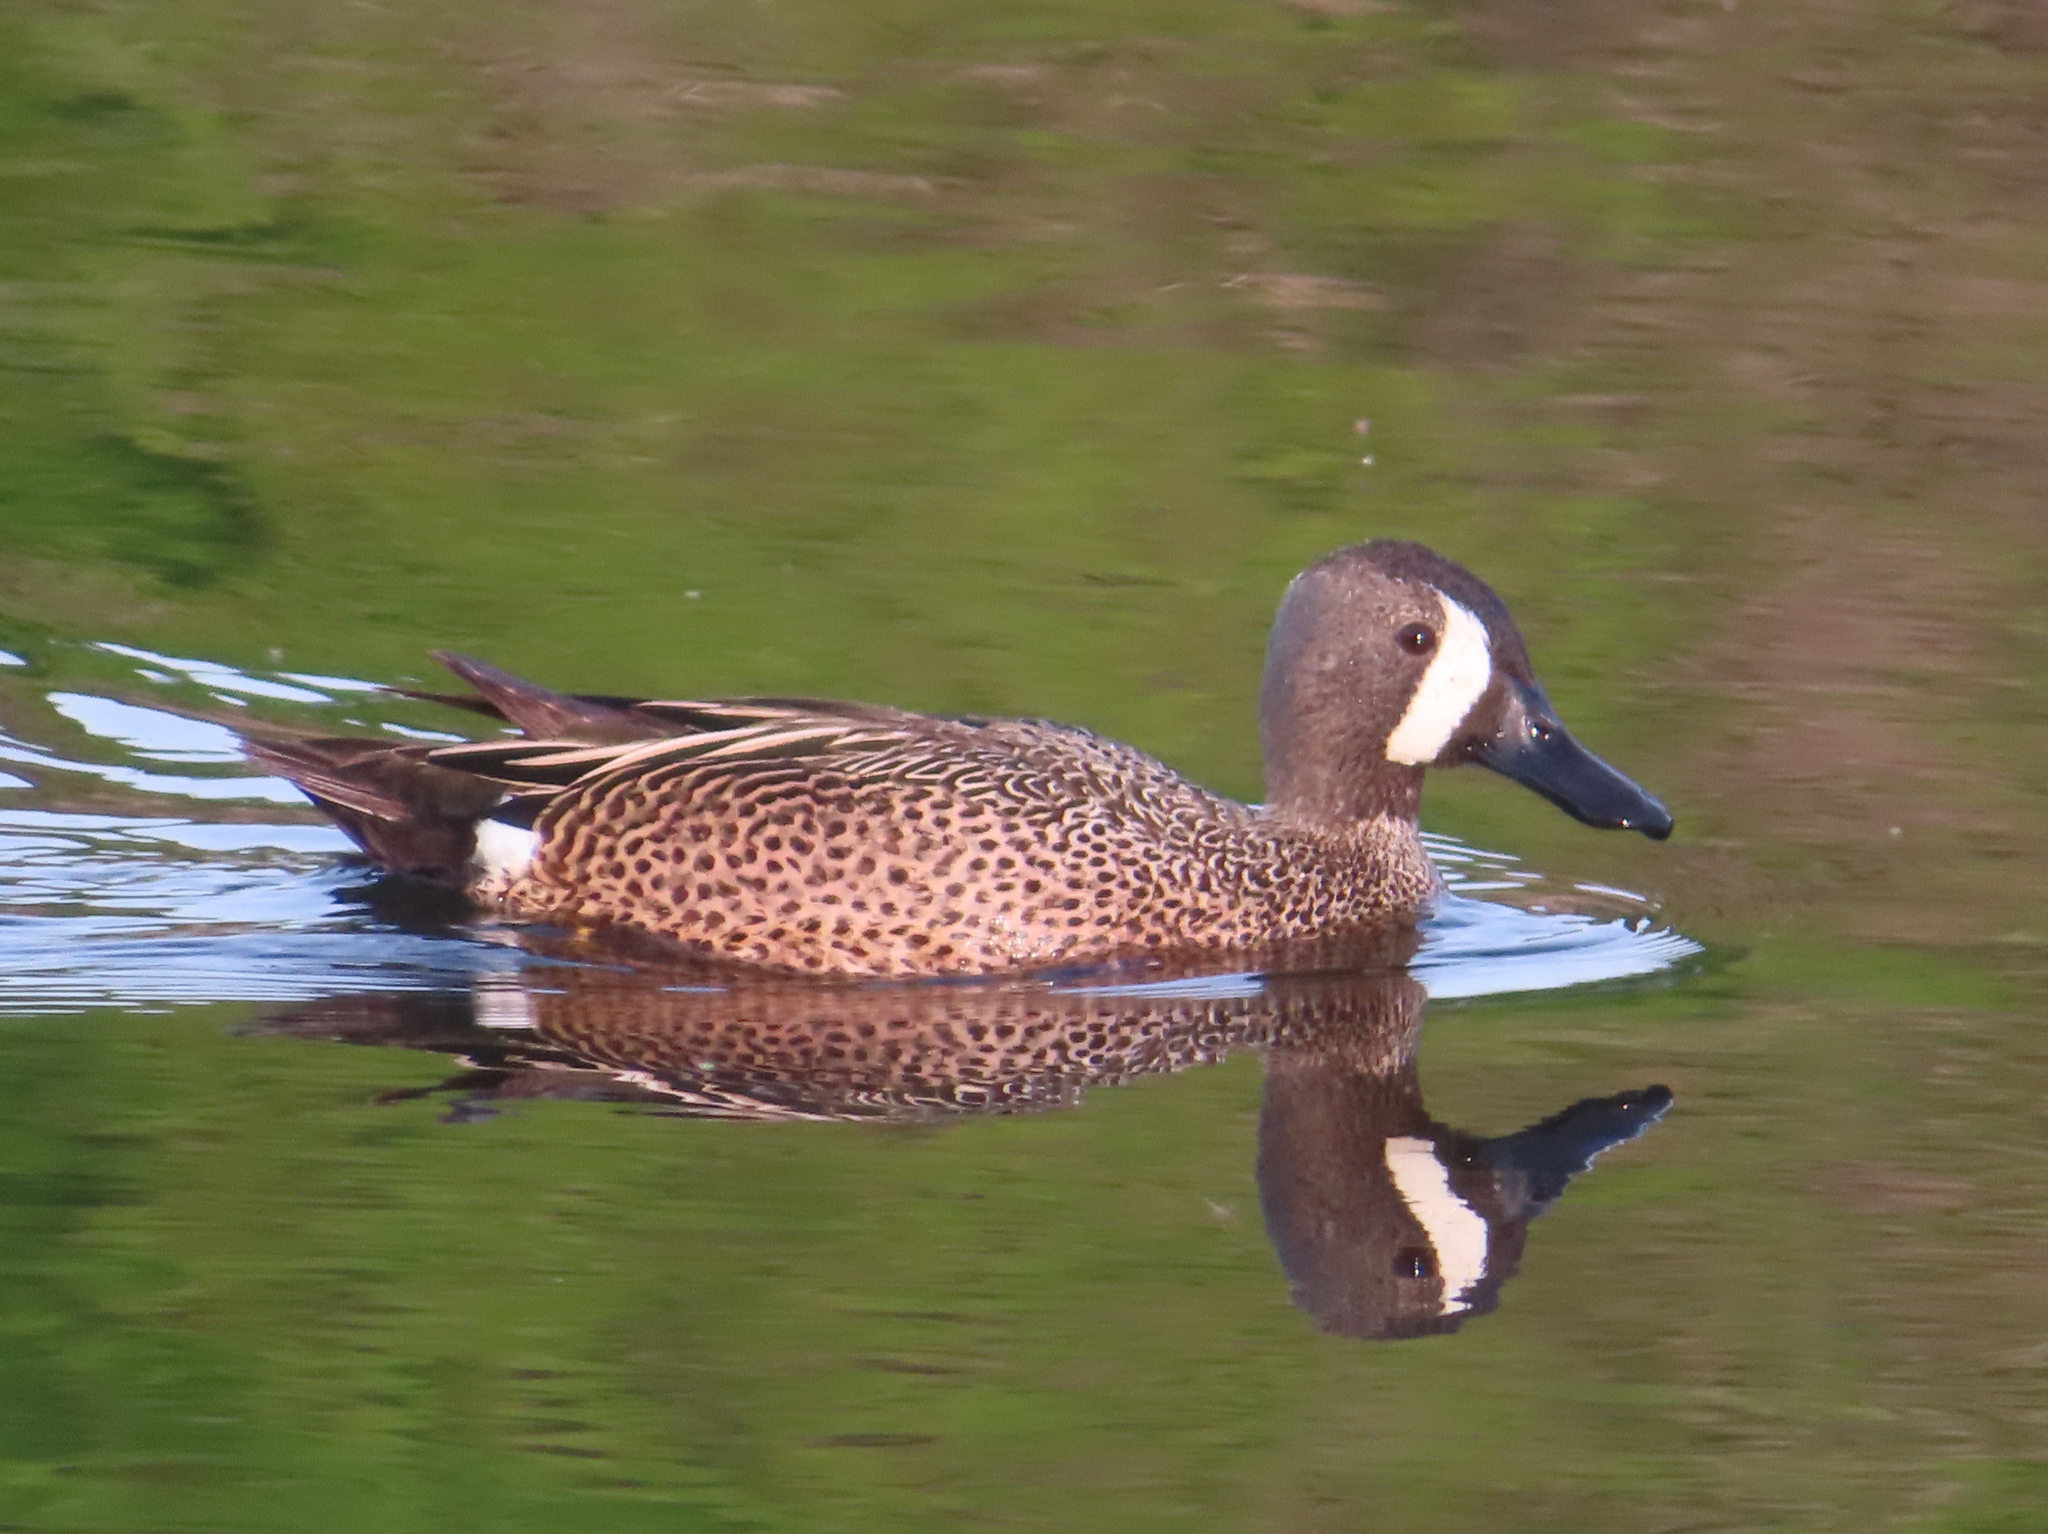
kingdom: Animalia
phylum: Chordata
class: Aves
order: Anseriformes
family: Anatidae
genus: Spatula
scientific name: Spatula discors
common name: Blue-winged teal
